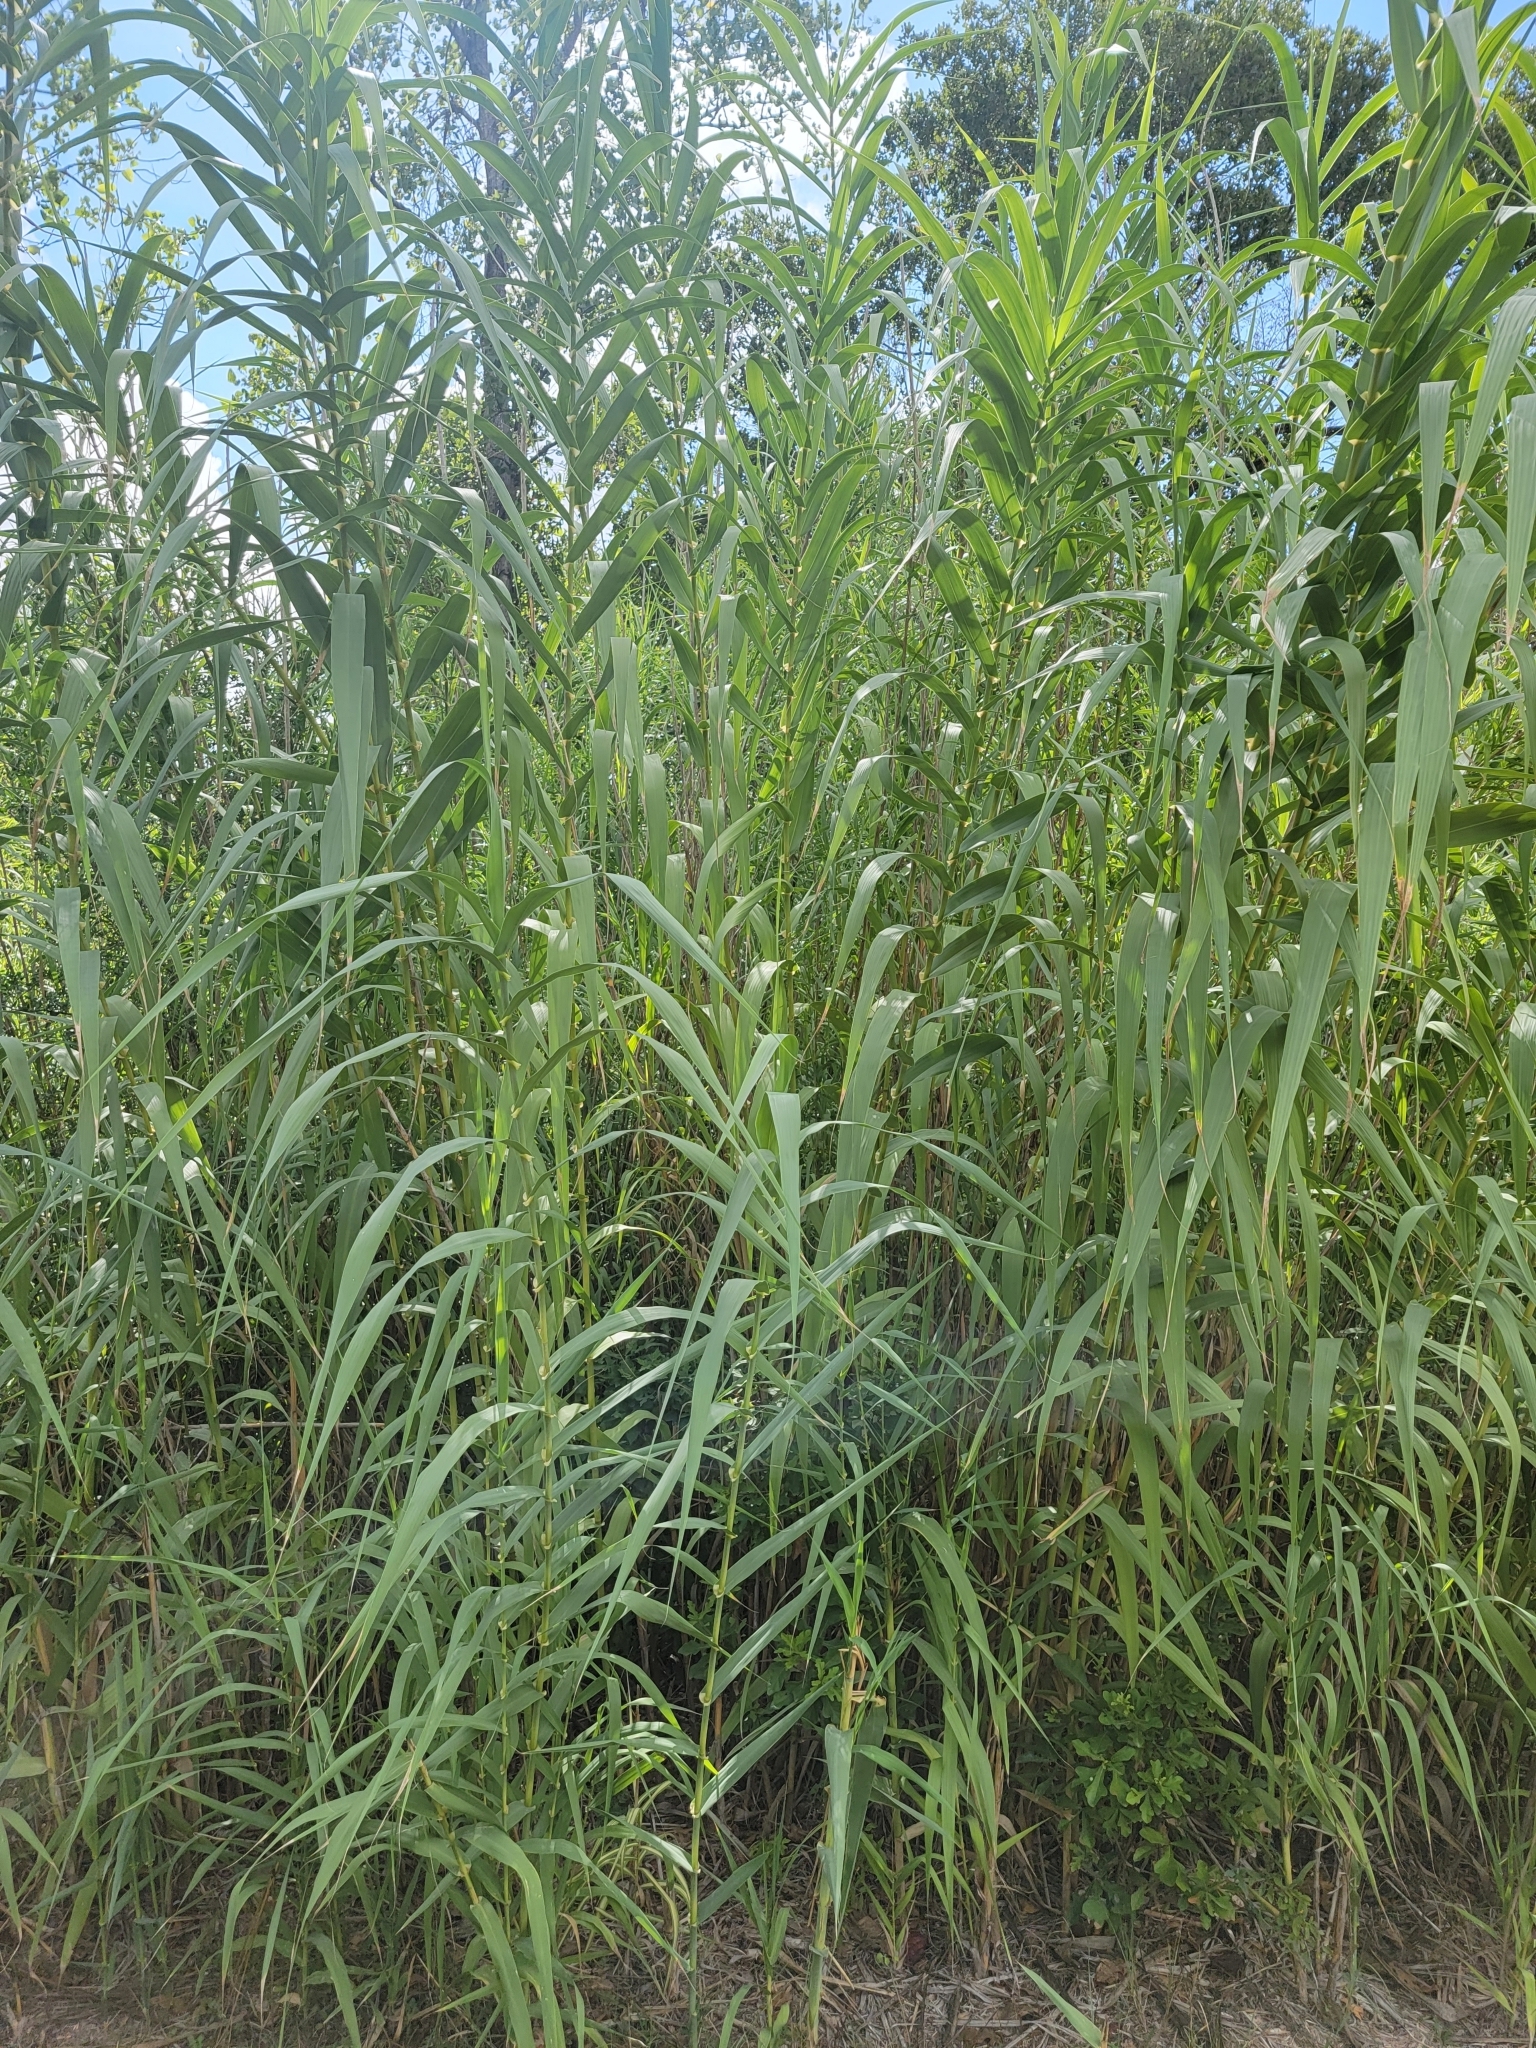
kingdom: Plantae
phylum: Tracheophyta
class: Liliopsida
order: Poales
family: Poaceae
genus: Arundo
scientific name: Arundo donax
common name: Giant reed
